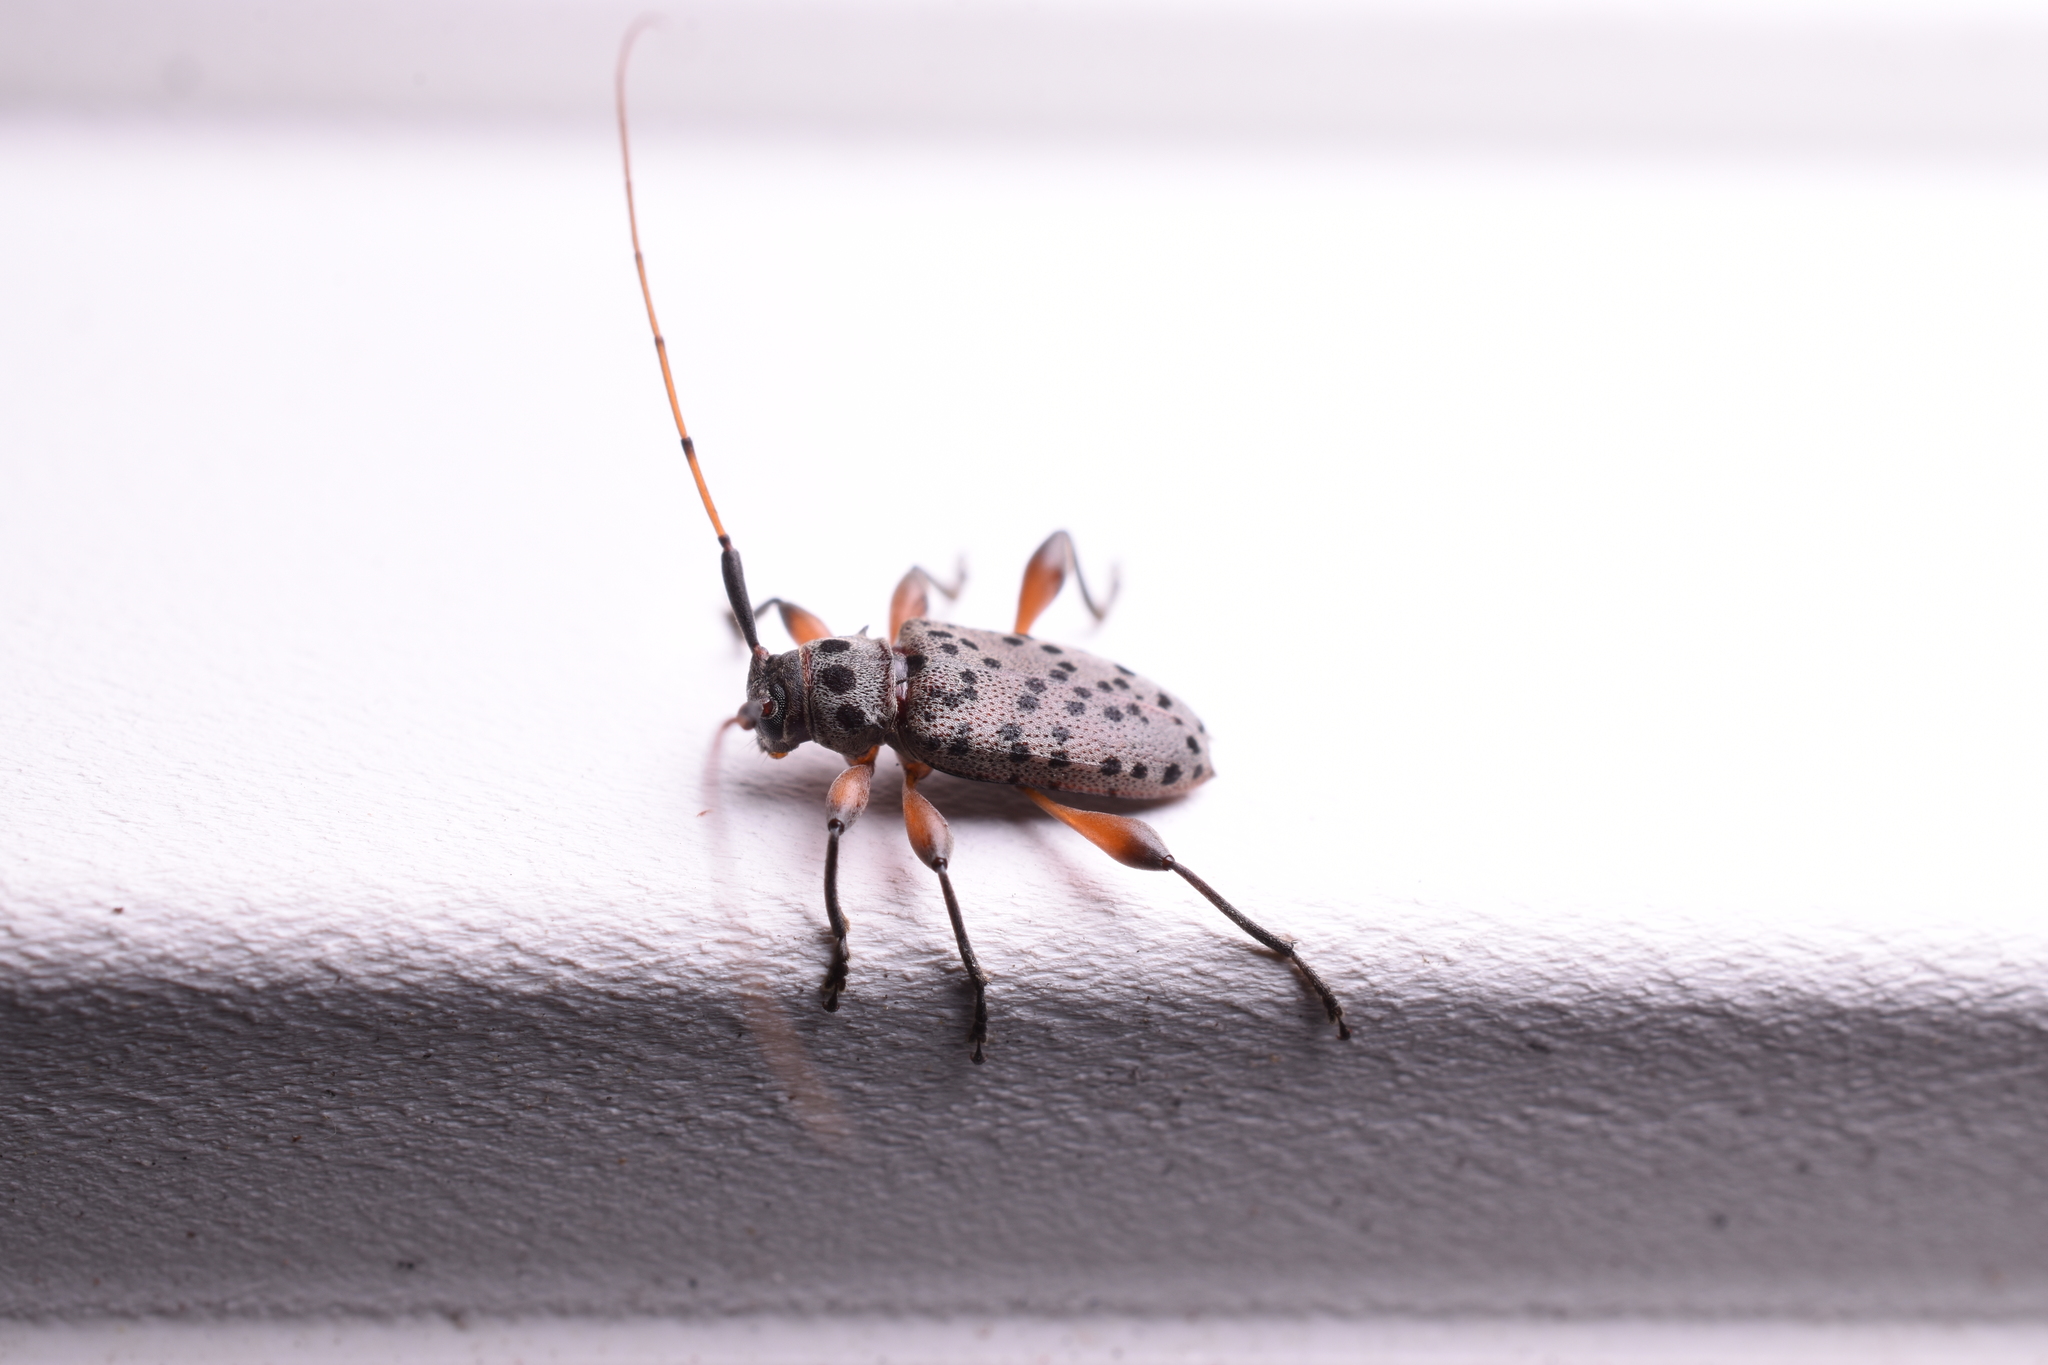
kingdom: Animalia
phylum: Arthropoda
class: Insecta
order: Coleoptera
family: Cerambycidae
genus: Hyperplatys
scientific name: Hyperplatys aspersa
